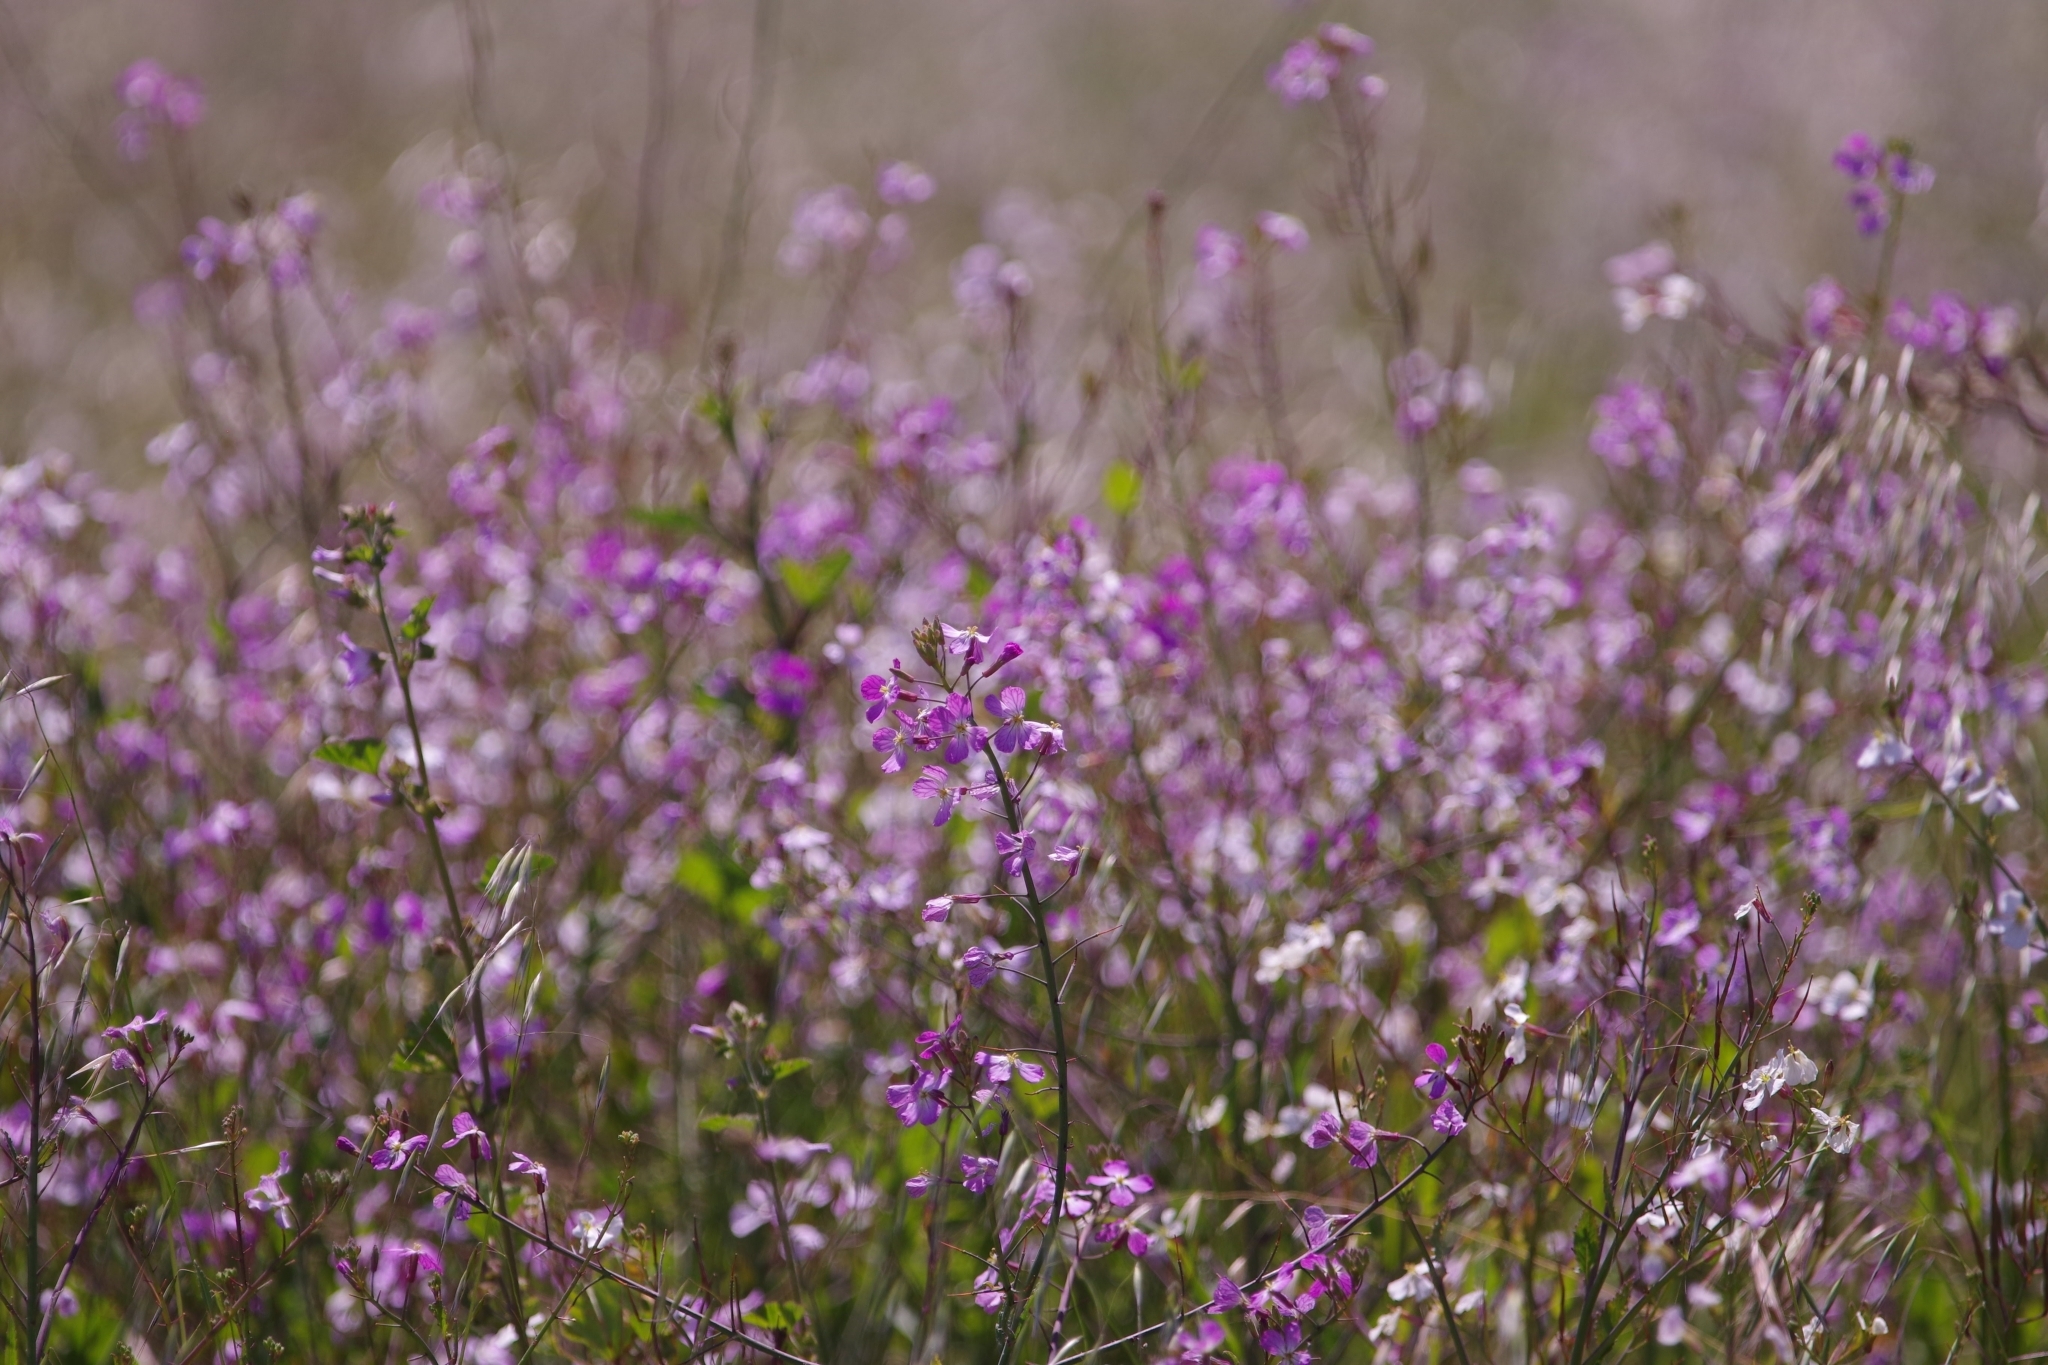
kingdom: Plantae
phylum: Tracheophyta
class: Magnoliopsida
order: Brassicales
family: Brassicaceae
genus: Raphanus
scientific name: Raphanus sativus
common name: Cultivated radish
